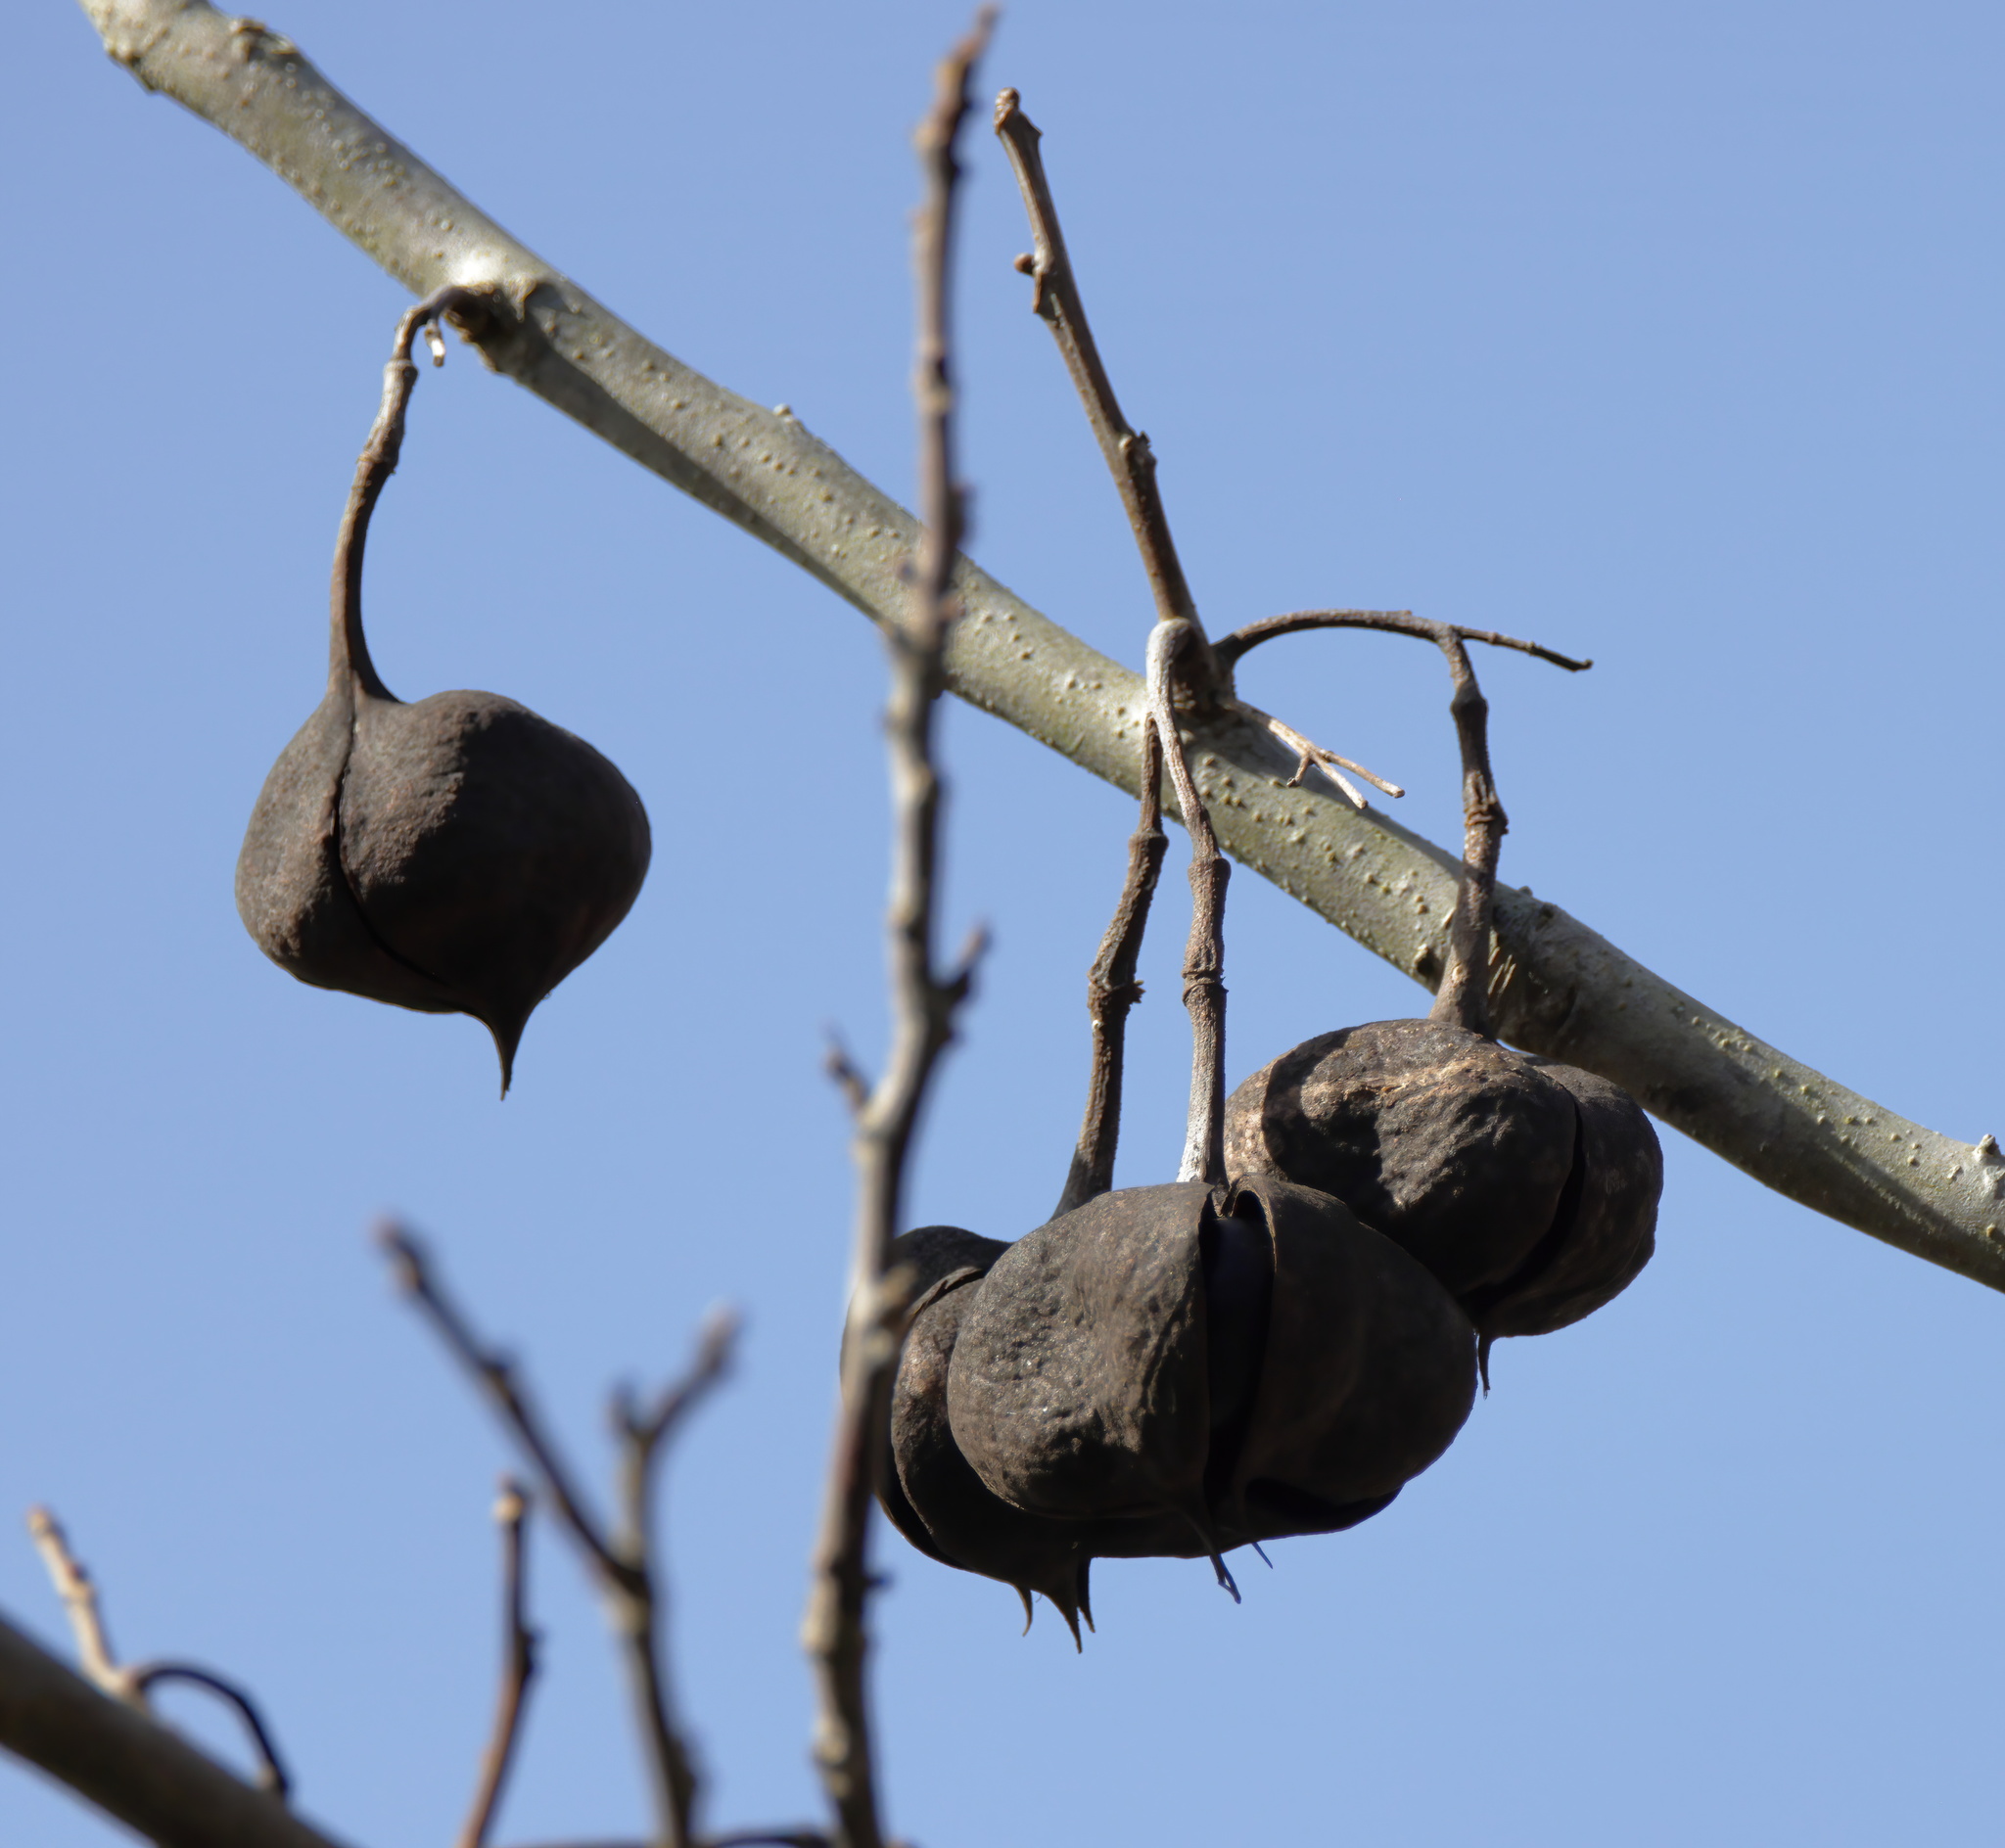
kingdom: Plantae
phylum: Tracheophyta
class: Magnoliopsida
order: Sapindales
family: Sapindaceae
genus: Ungnadia
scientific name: Ungnadia speciosa
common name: Texas-buckeye
